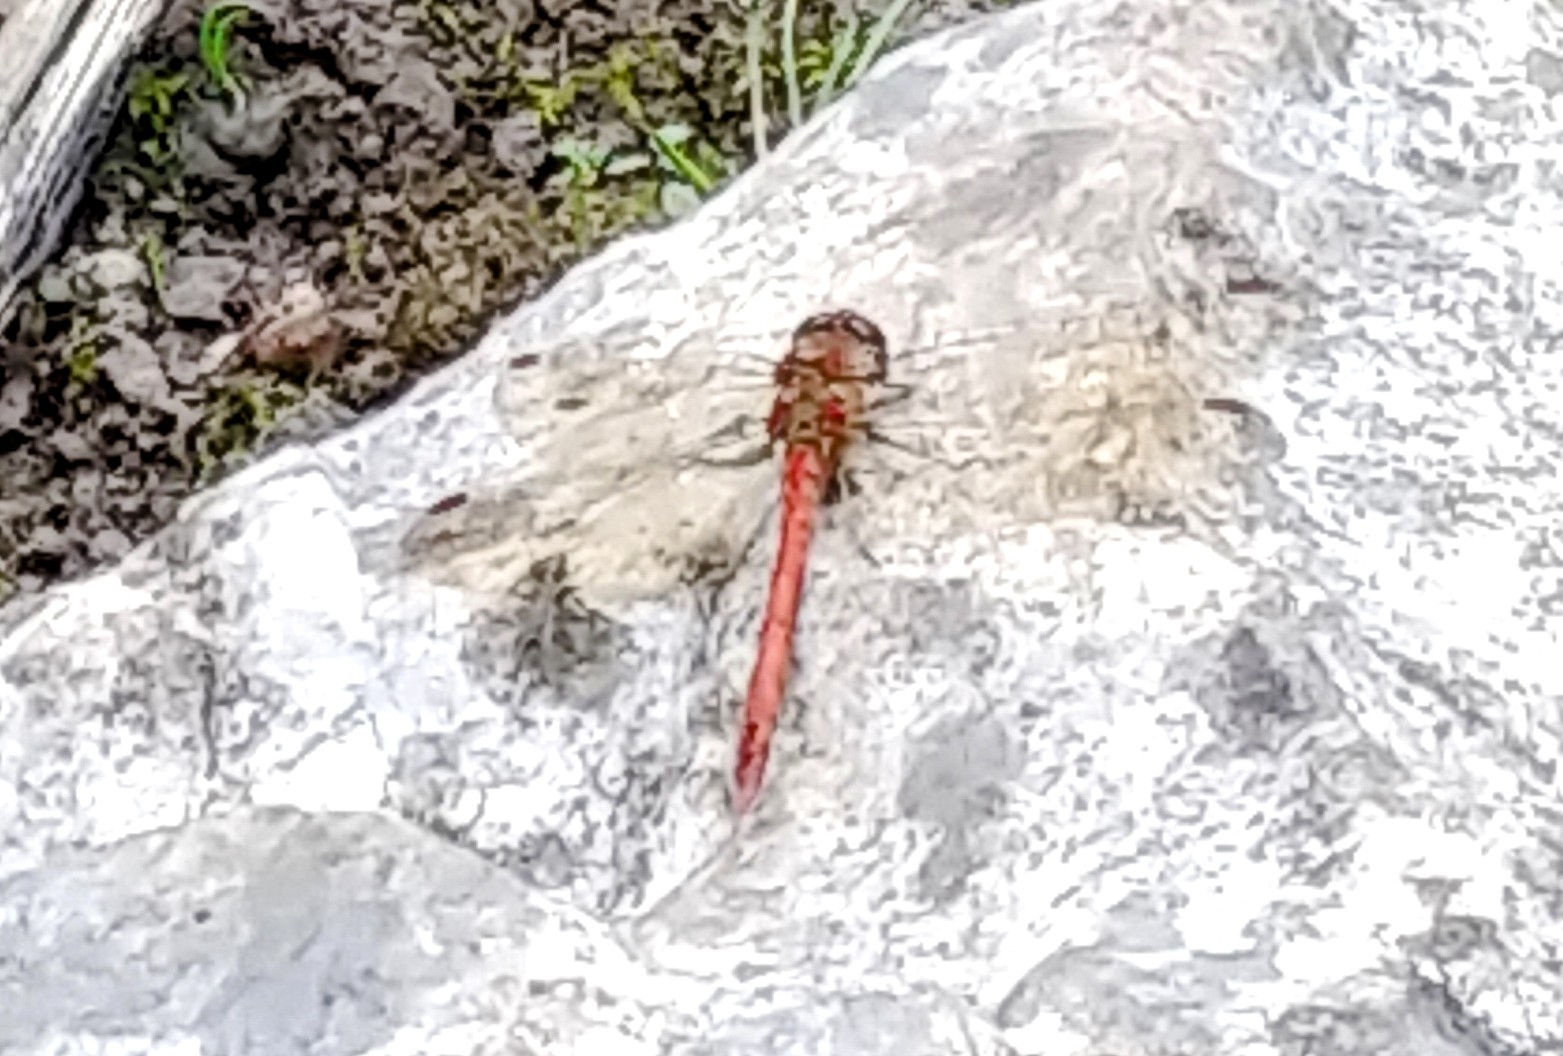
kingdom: Animalia
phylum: Arthropoda
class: Insecta
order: Odonata
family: Libellulidae
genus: Sympetrum
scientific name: Sympetrum striolatum
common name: Common darter
